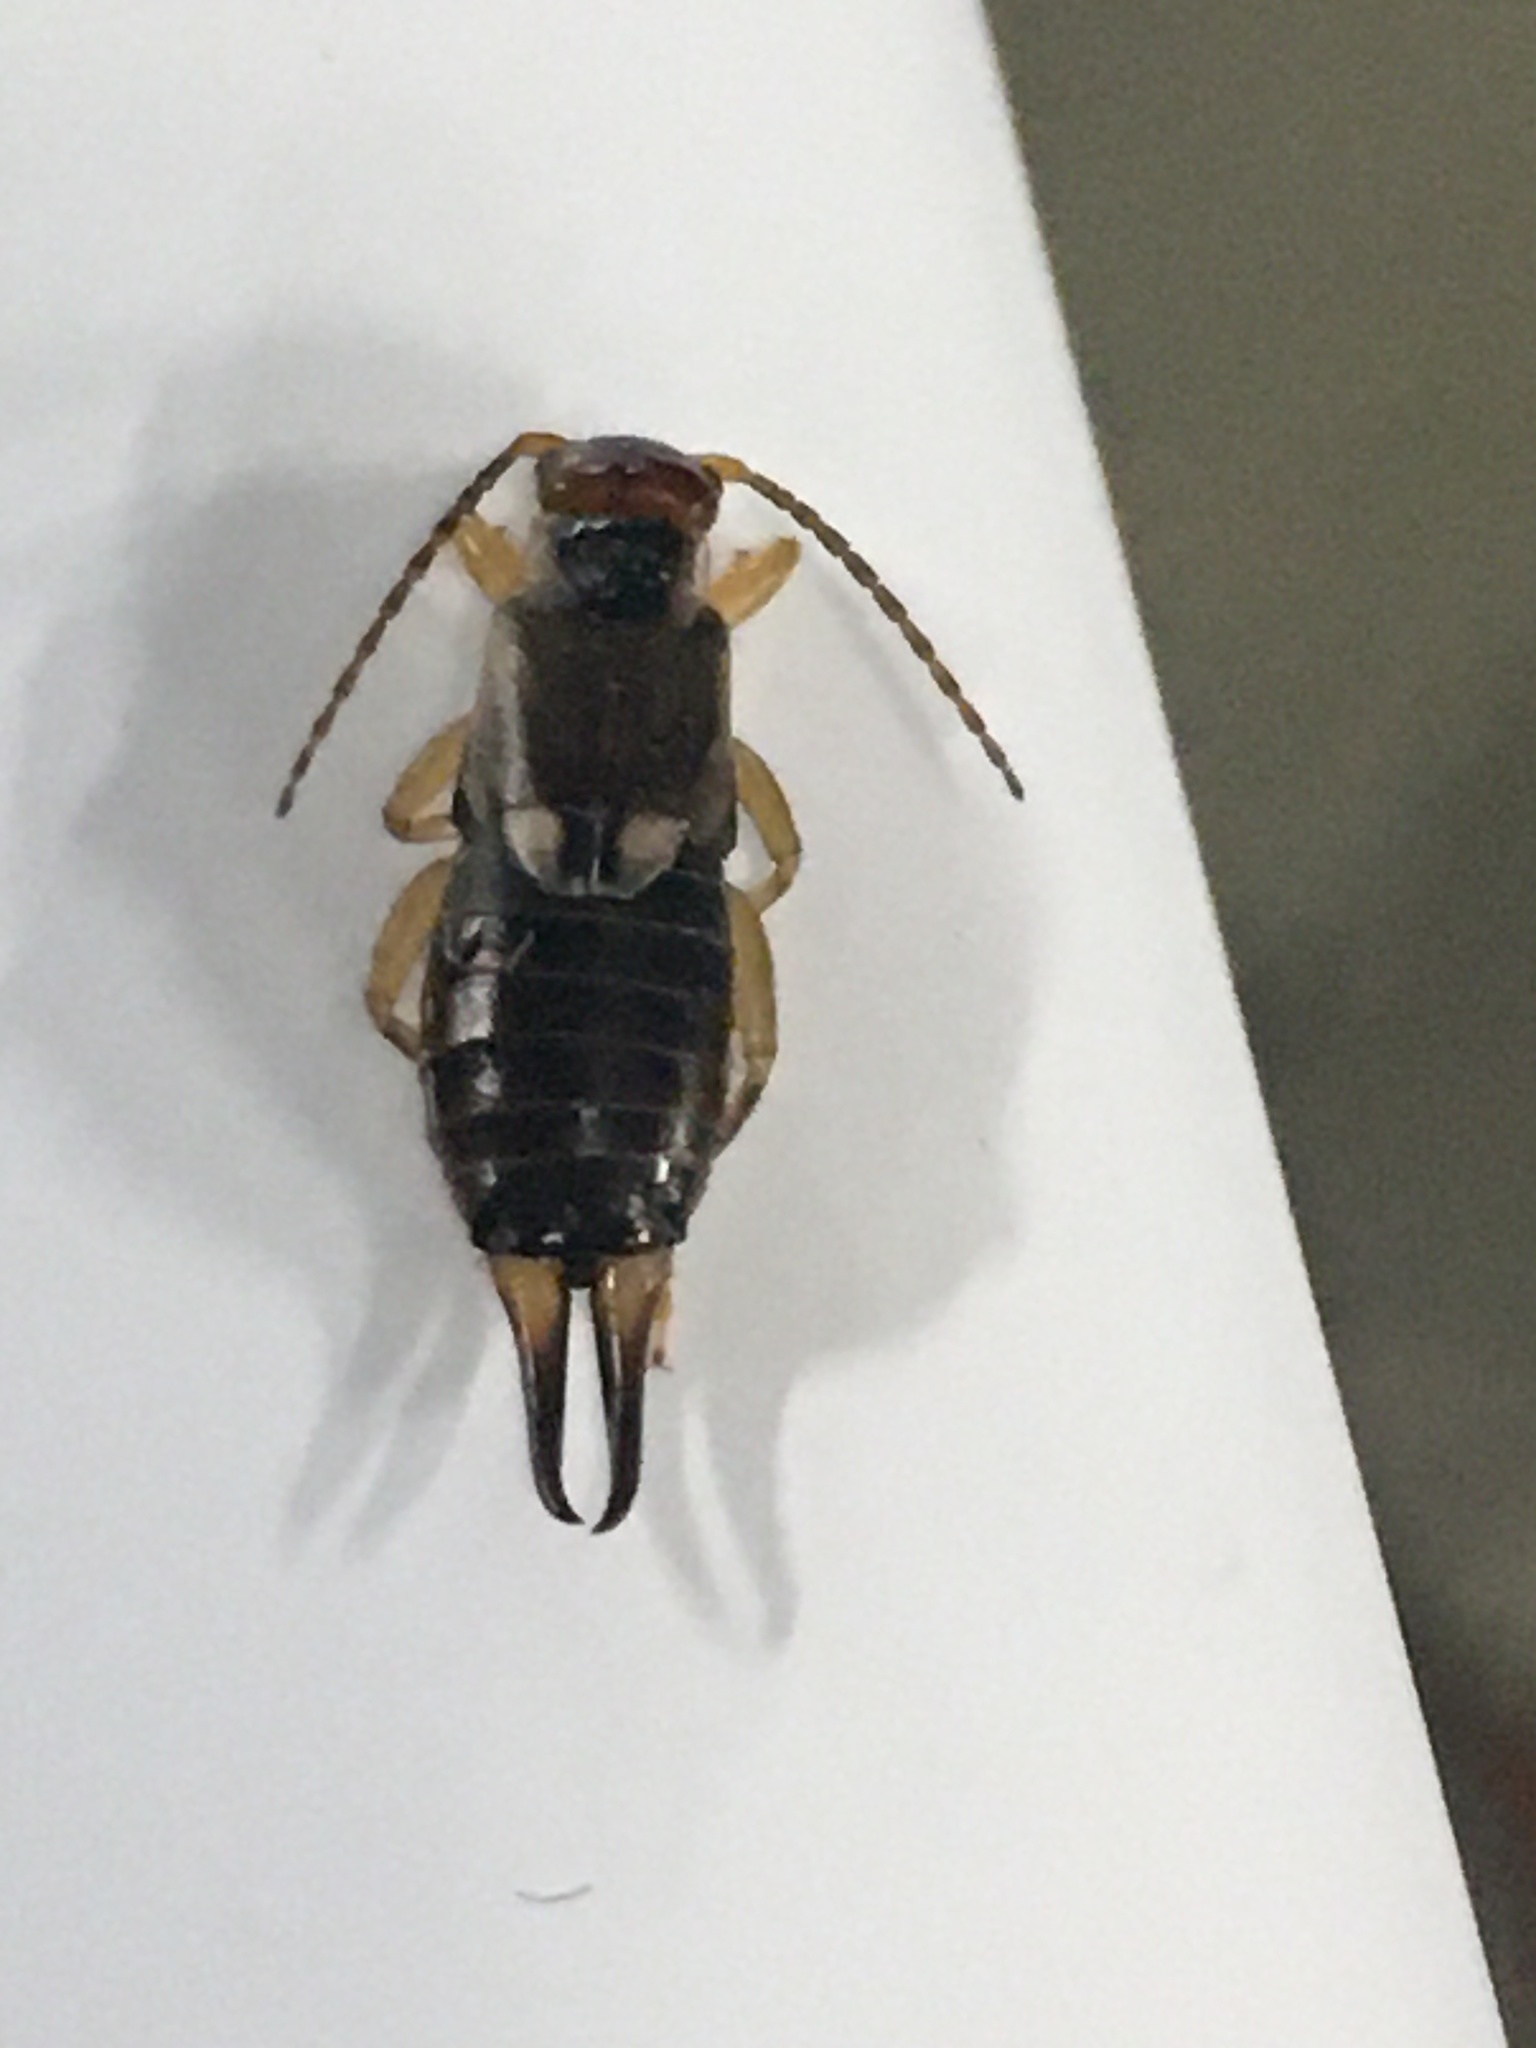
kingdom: Animalia
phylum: Arthropoda
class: Insecta
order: Dermaptera
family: Forficulidae
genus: Forficula
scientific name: Forficula
